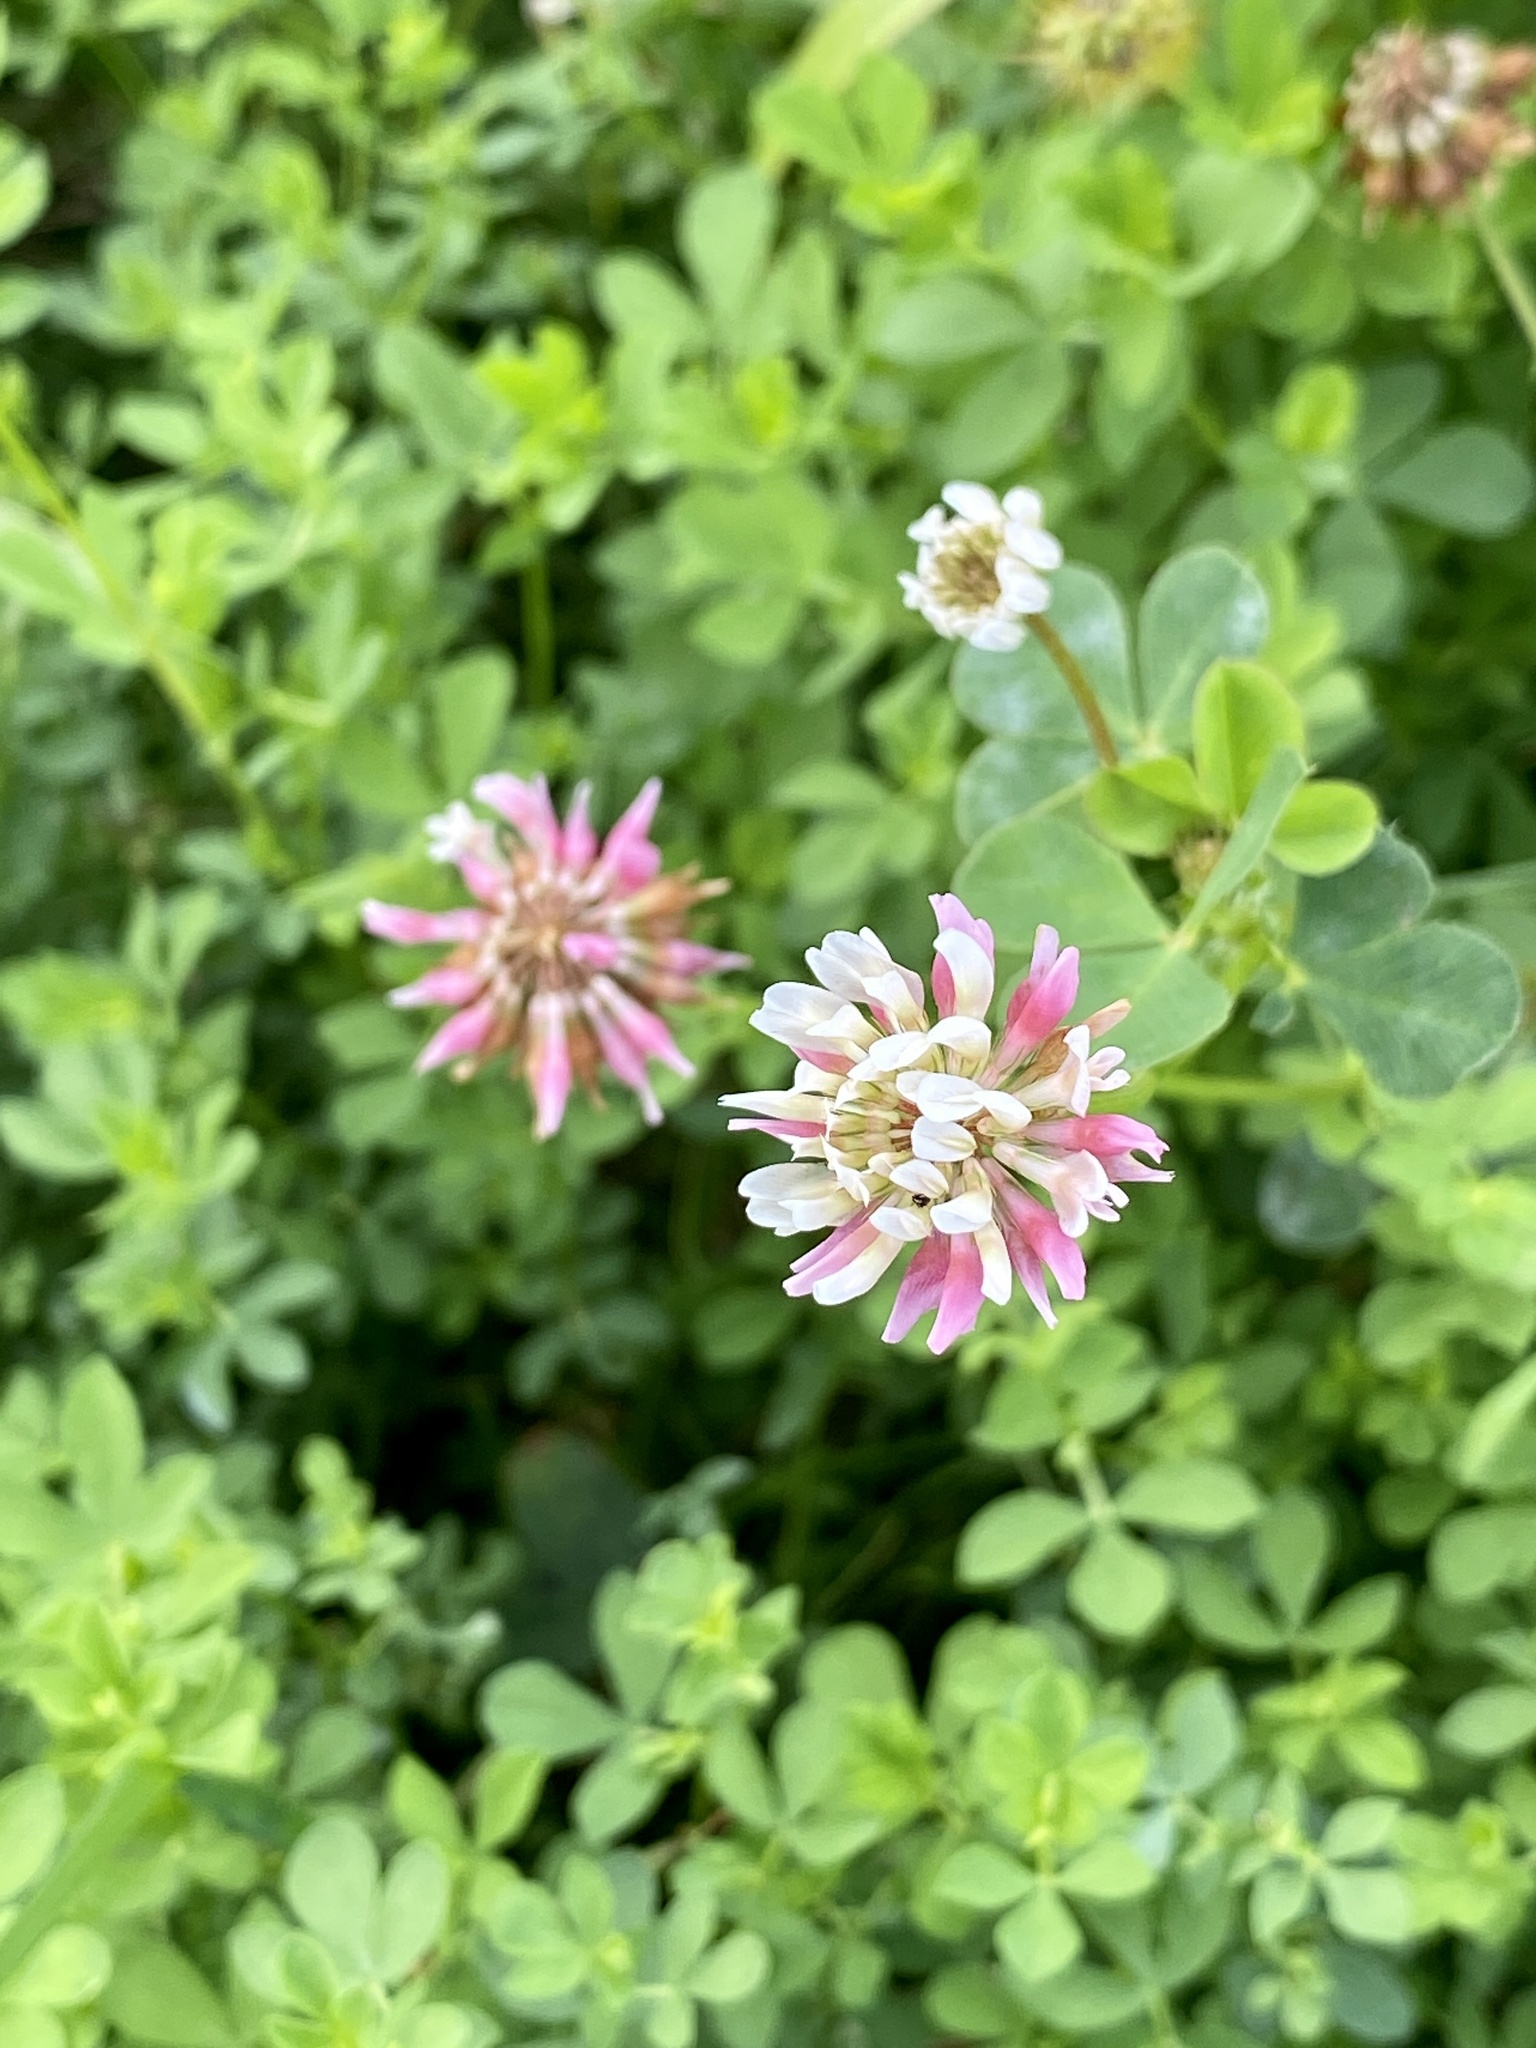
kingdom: Plantae
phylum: Tracheophyta
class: Magnoliopsida
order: Fabales
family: Fabaceae
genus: Trifolium
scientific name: Trifolium hybridum
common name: Alsike clover
